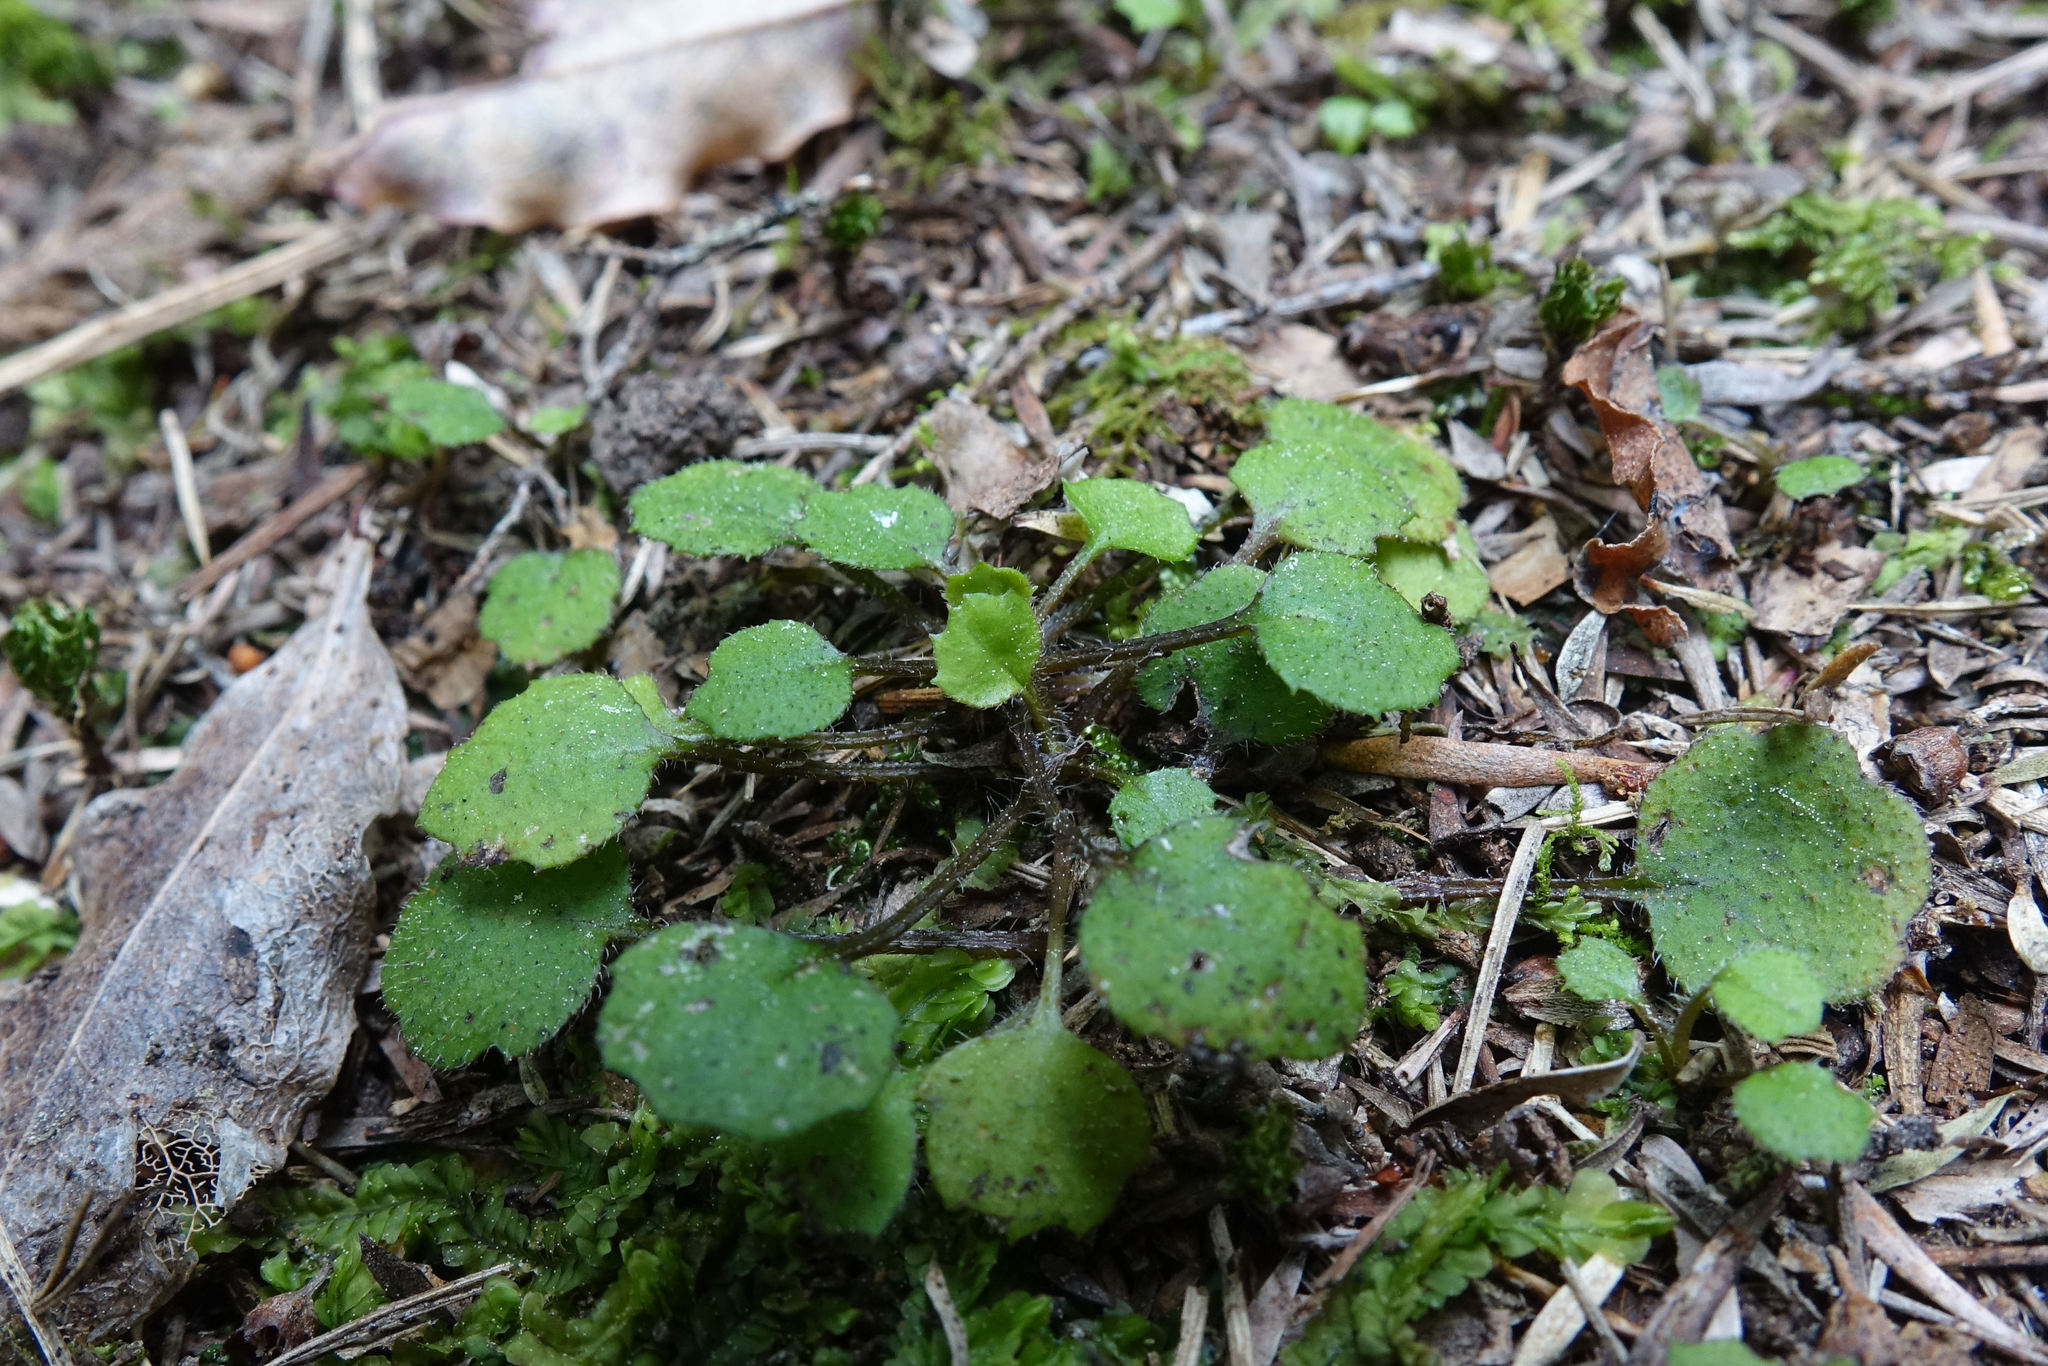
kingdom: Plantae
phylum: Tracheophyta
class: Magnoliopsida
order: Asterales
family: Asteraceae
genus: Lagenophora
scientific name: Lagenophora strangulata
